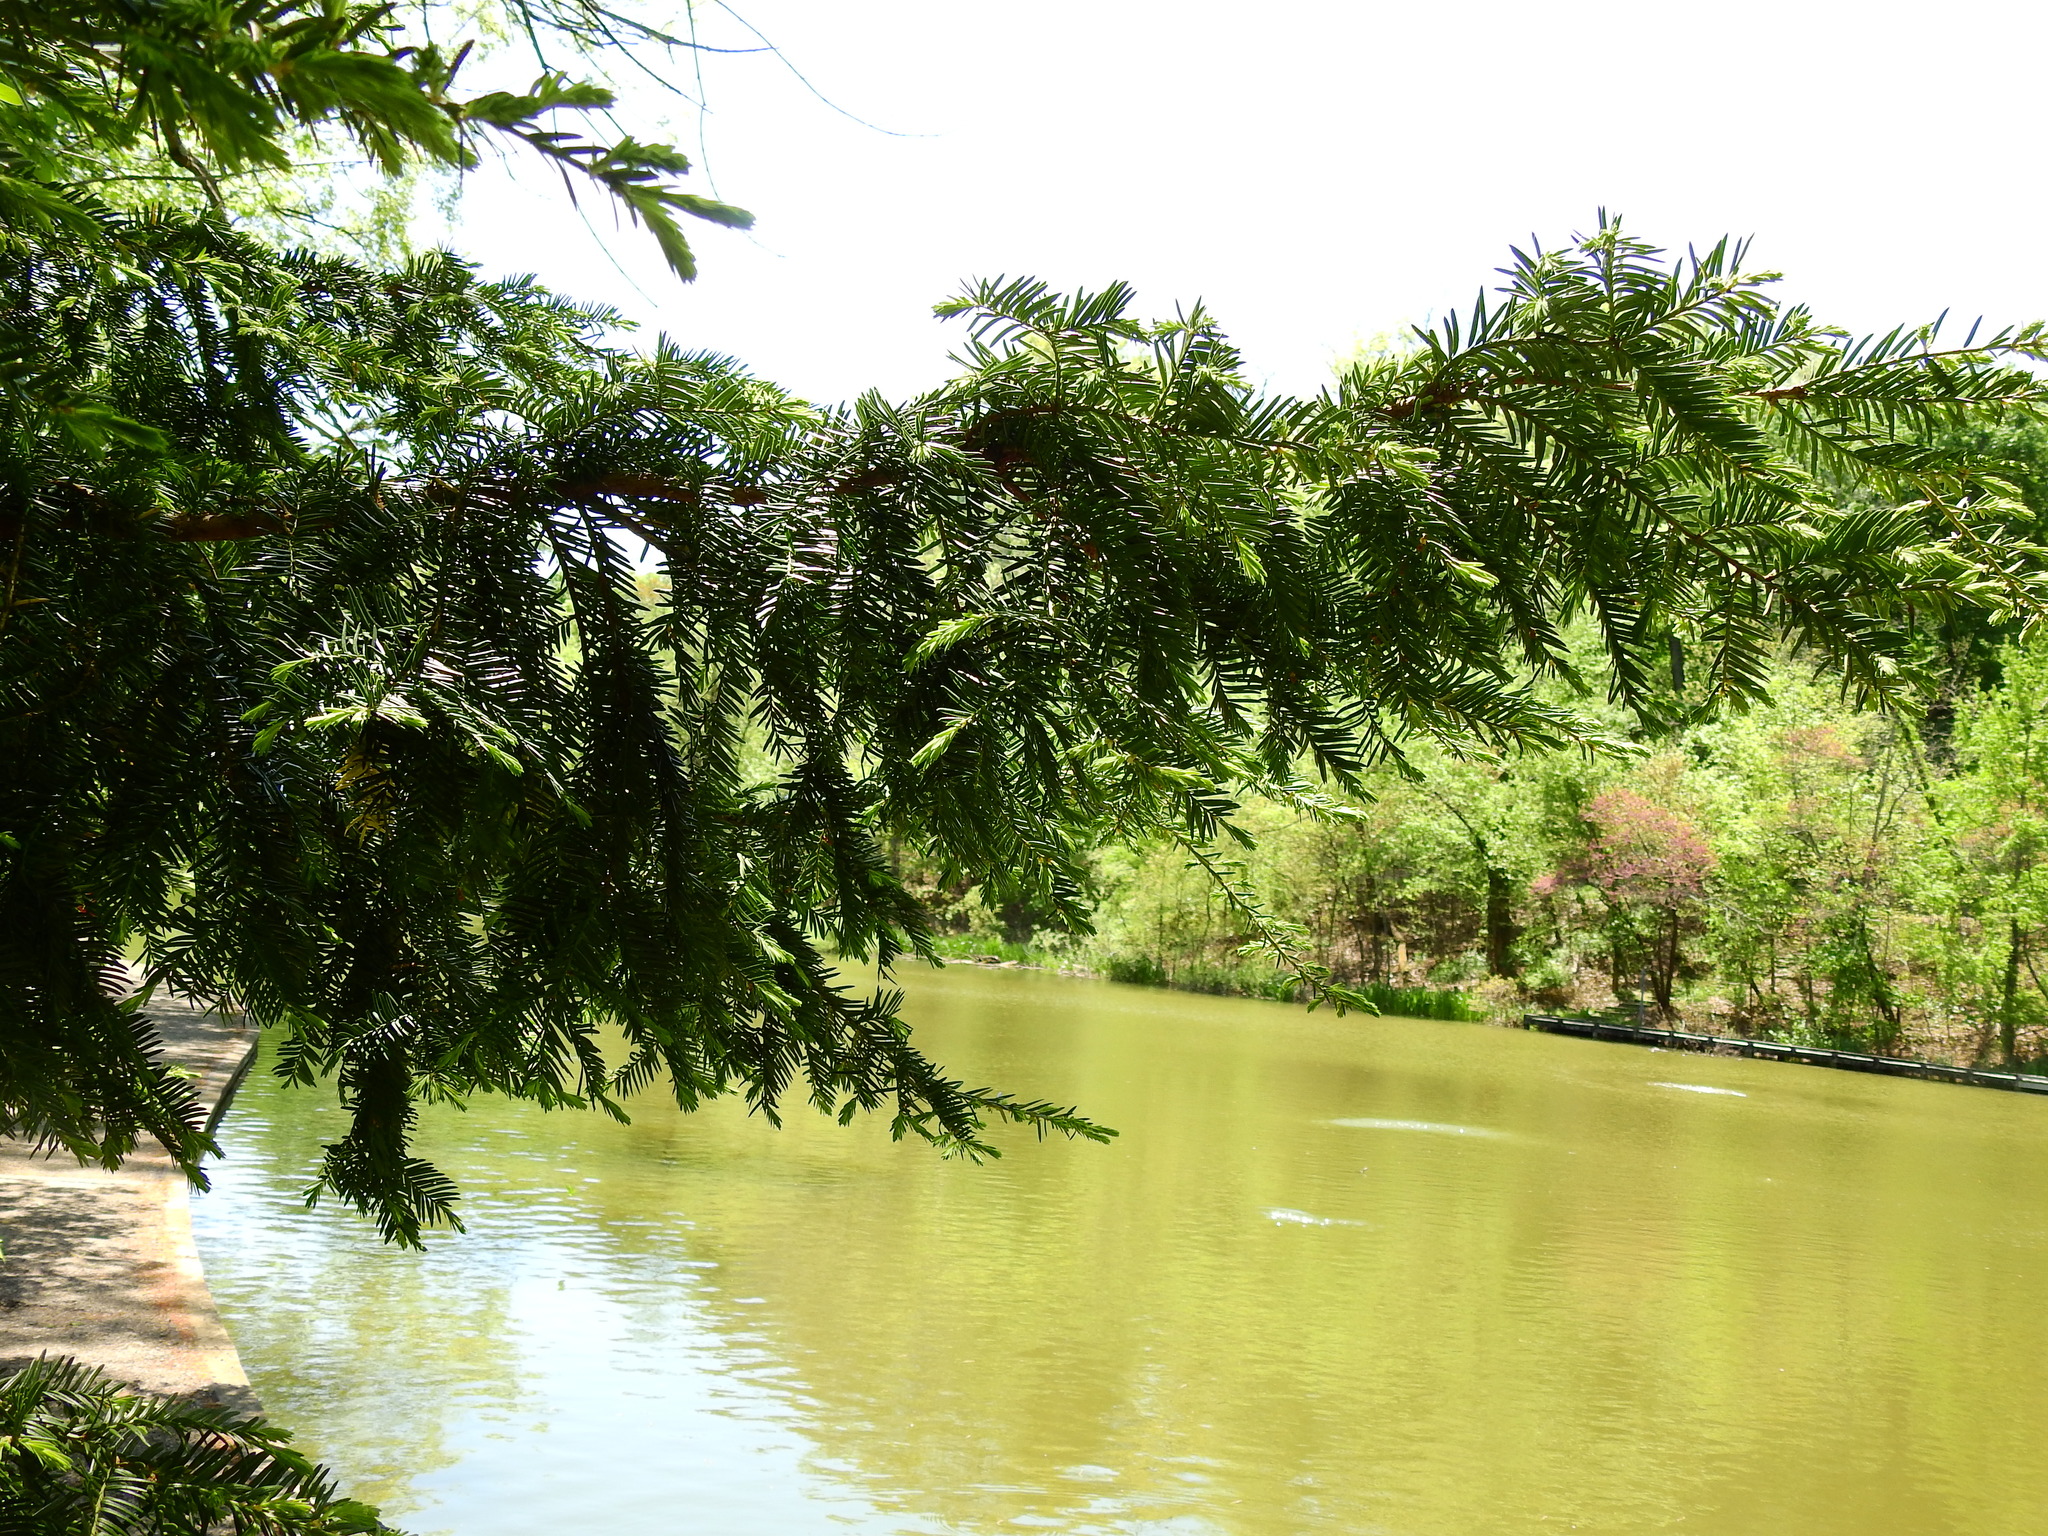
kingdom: Plantae
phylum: Tracheophyta
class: Pinopsida
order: Pinales
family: Taxaceae
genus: Taxus
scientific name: Taxus baccata
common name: Yew
